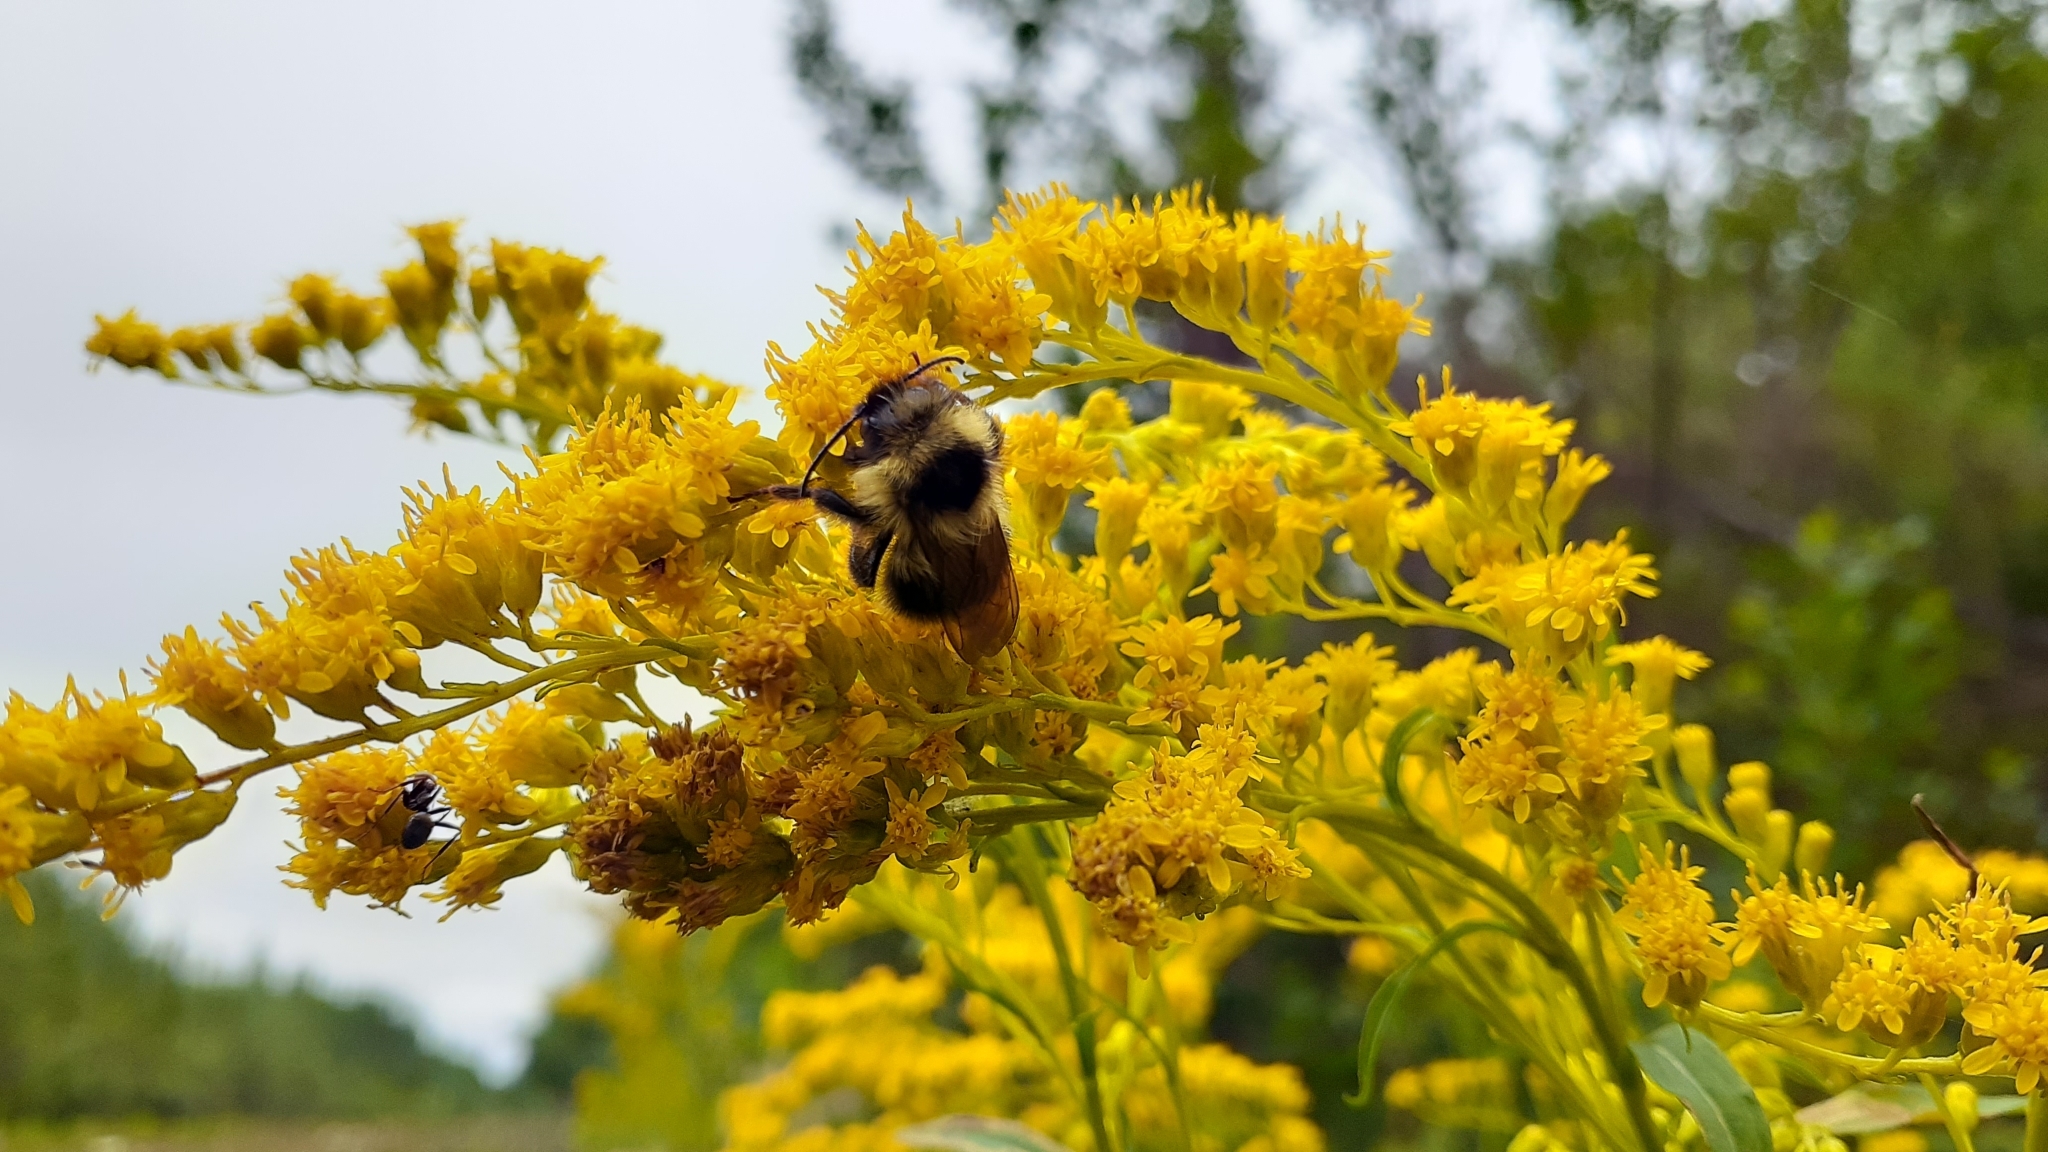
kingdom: Animalia
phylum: Arthropoda
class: Insecta
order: Hymenoptera
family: Apidae
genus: Bombus
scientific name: Bombus flavidus
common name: Fernald cuckoo bumble bee
